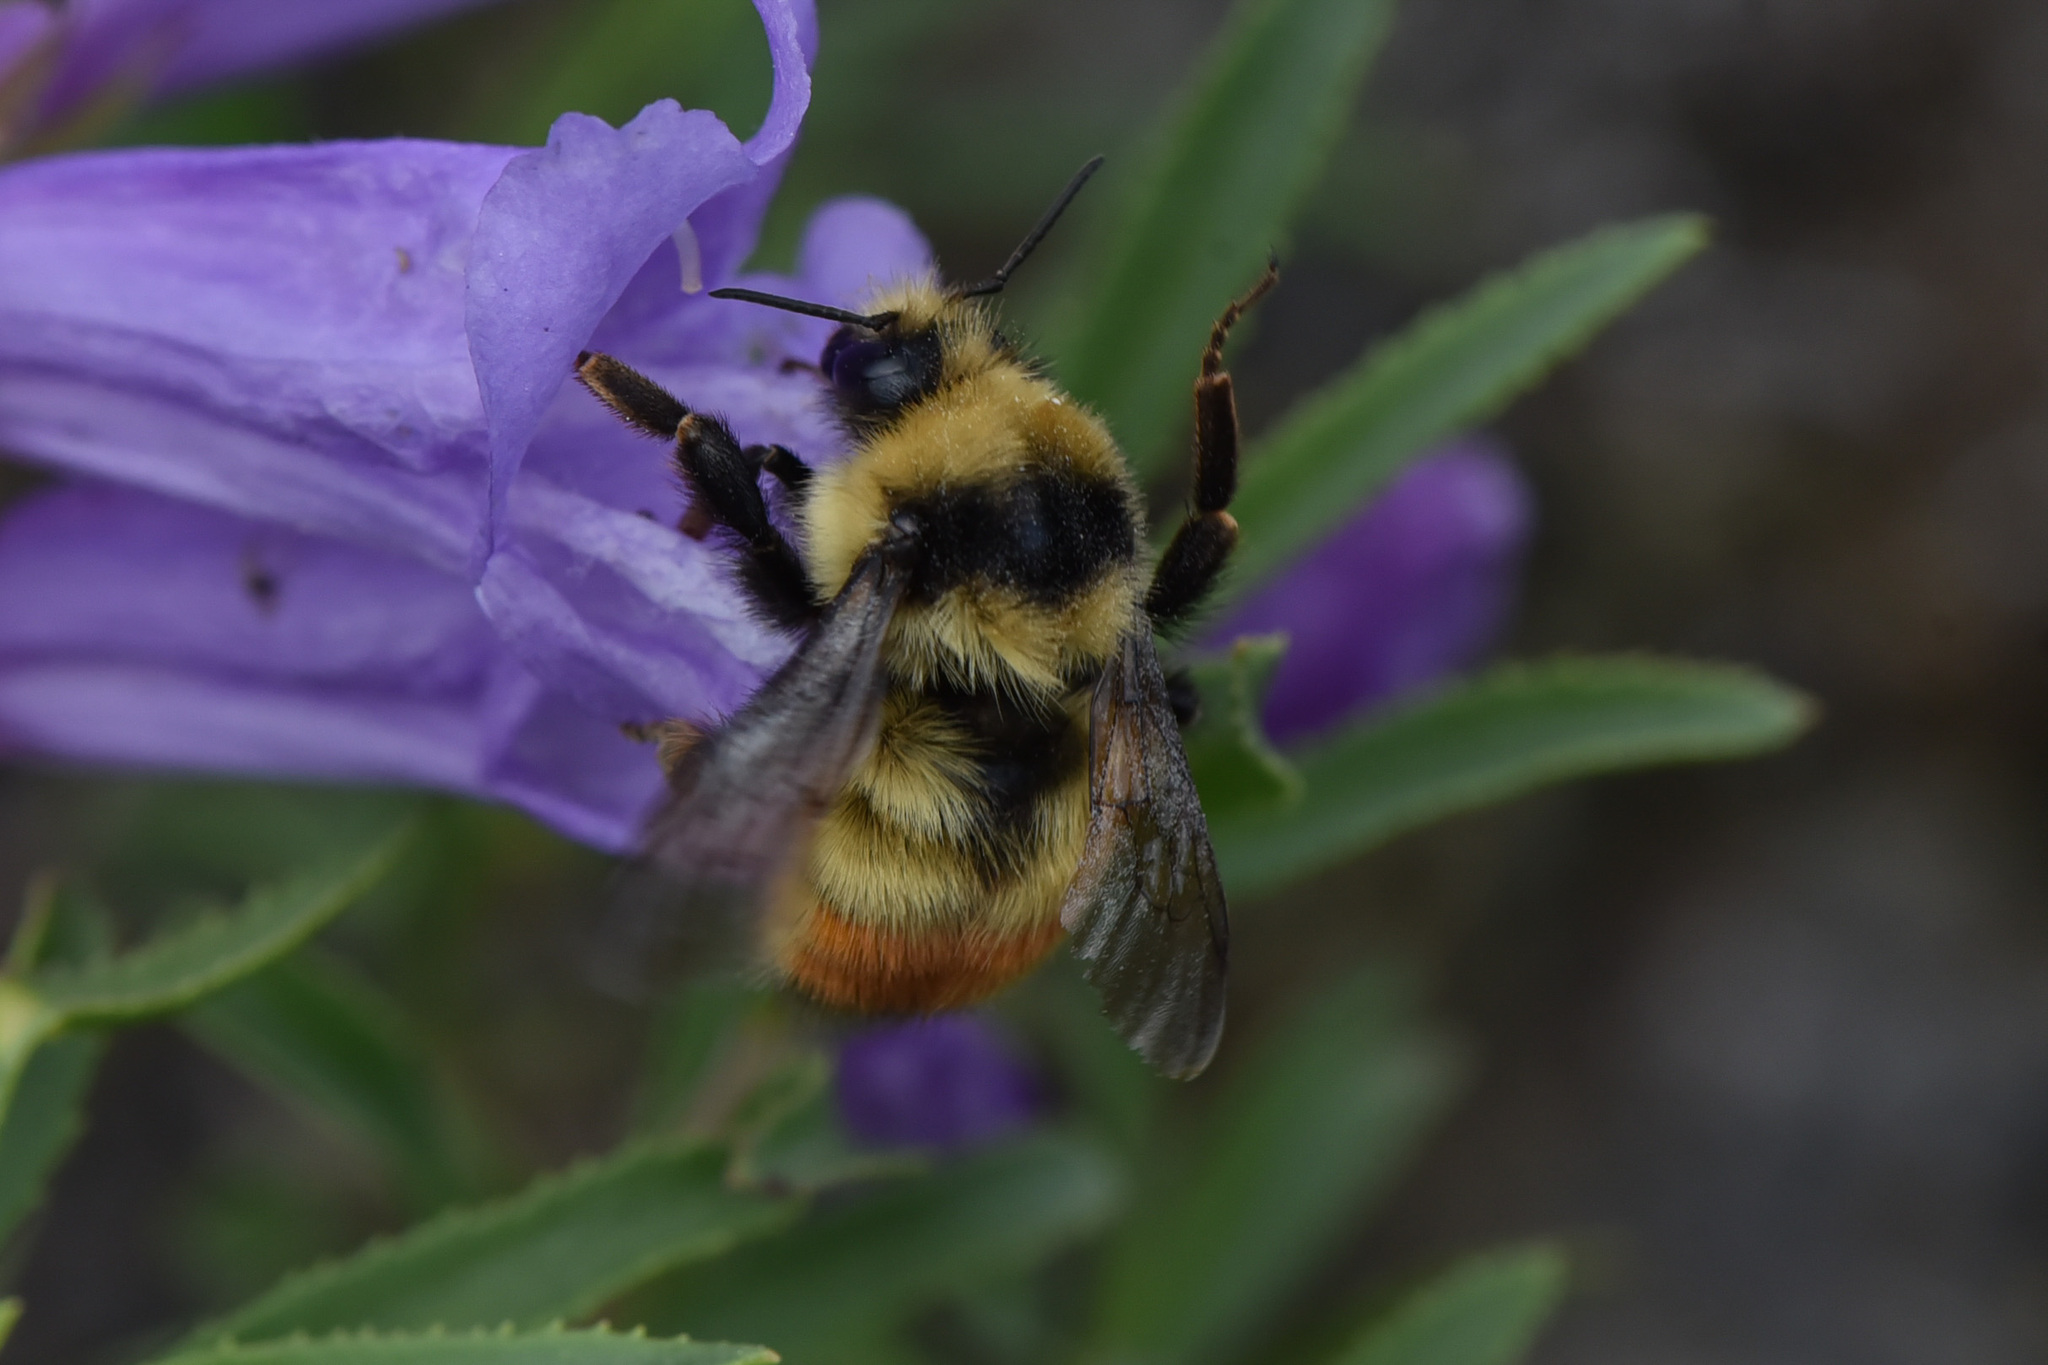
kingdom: Animalia
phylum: Arthropoda
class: Insecta
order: Hymenoptera
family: Apidae
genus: Bombus
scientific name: Bombus centralis
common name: Central bumble bee
